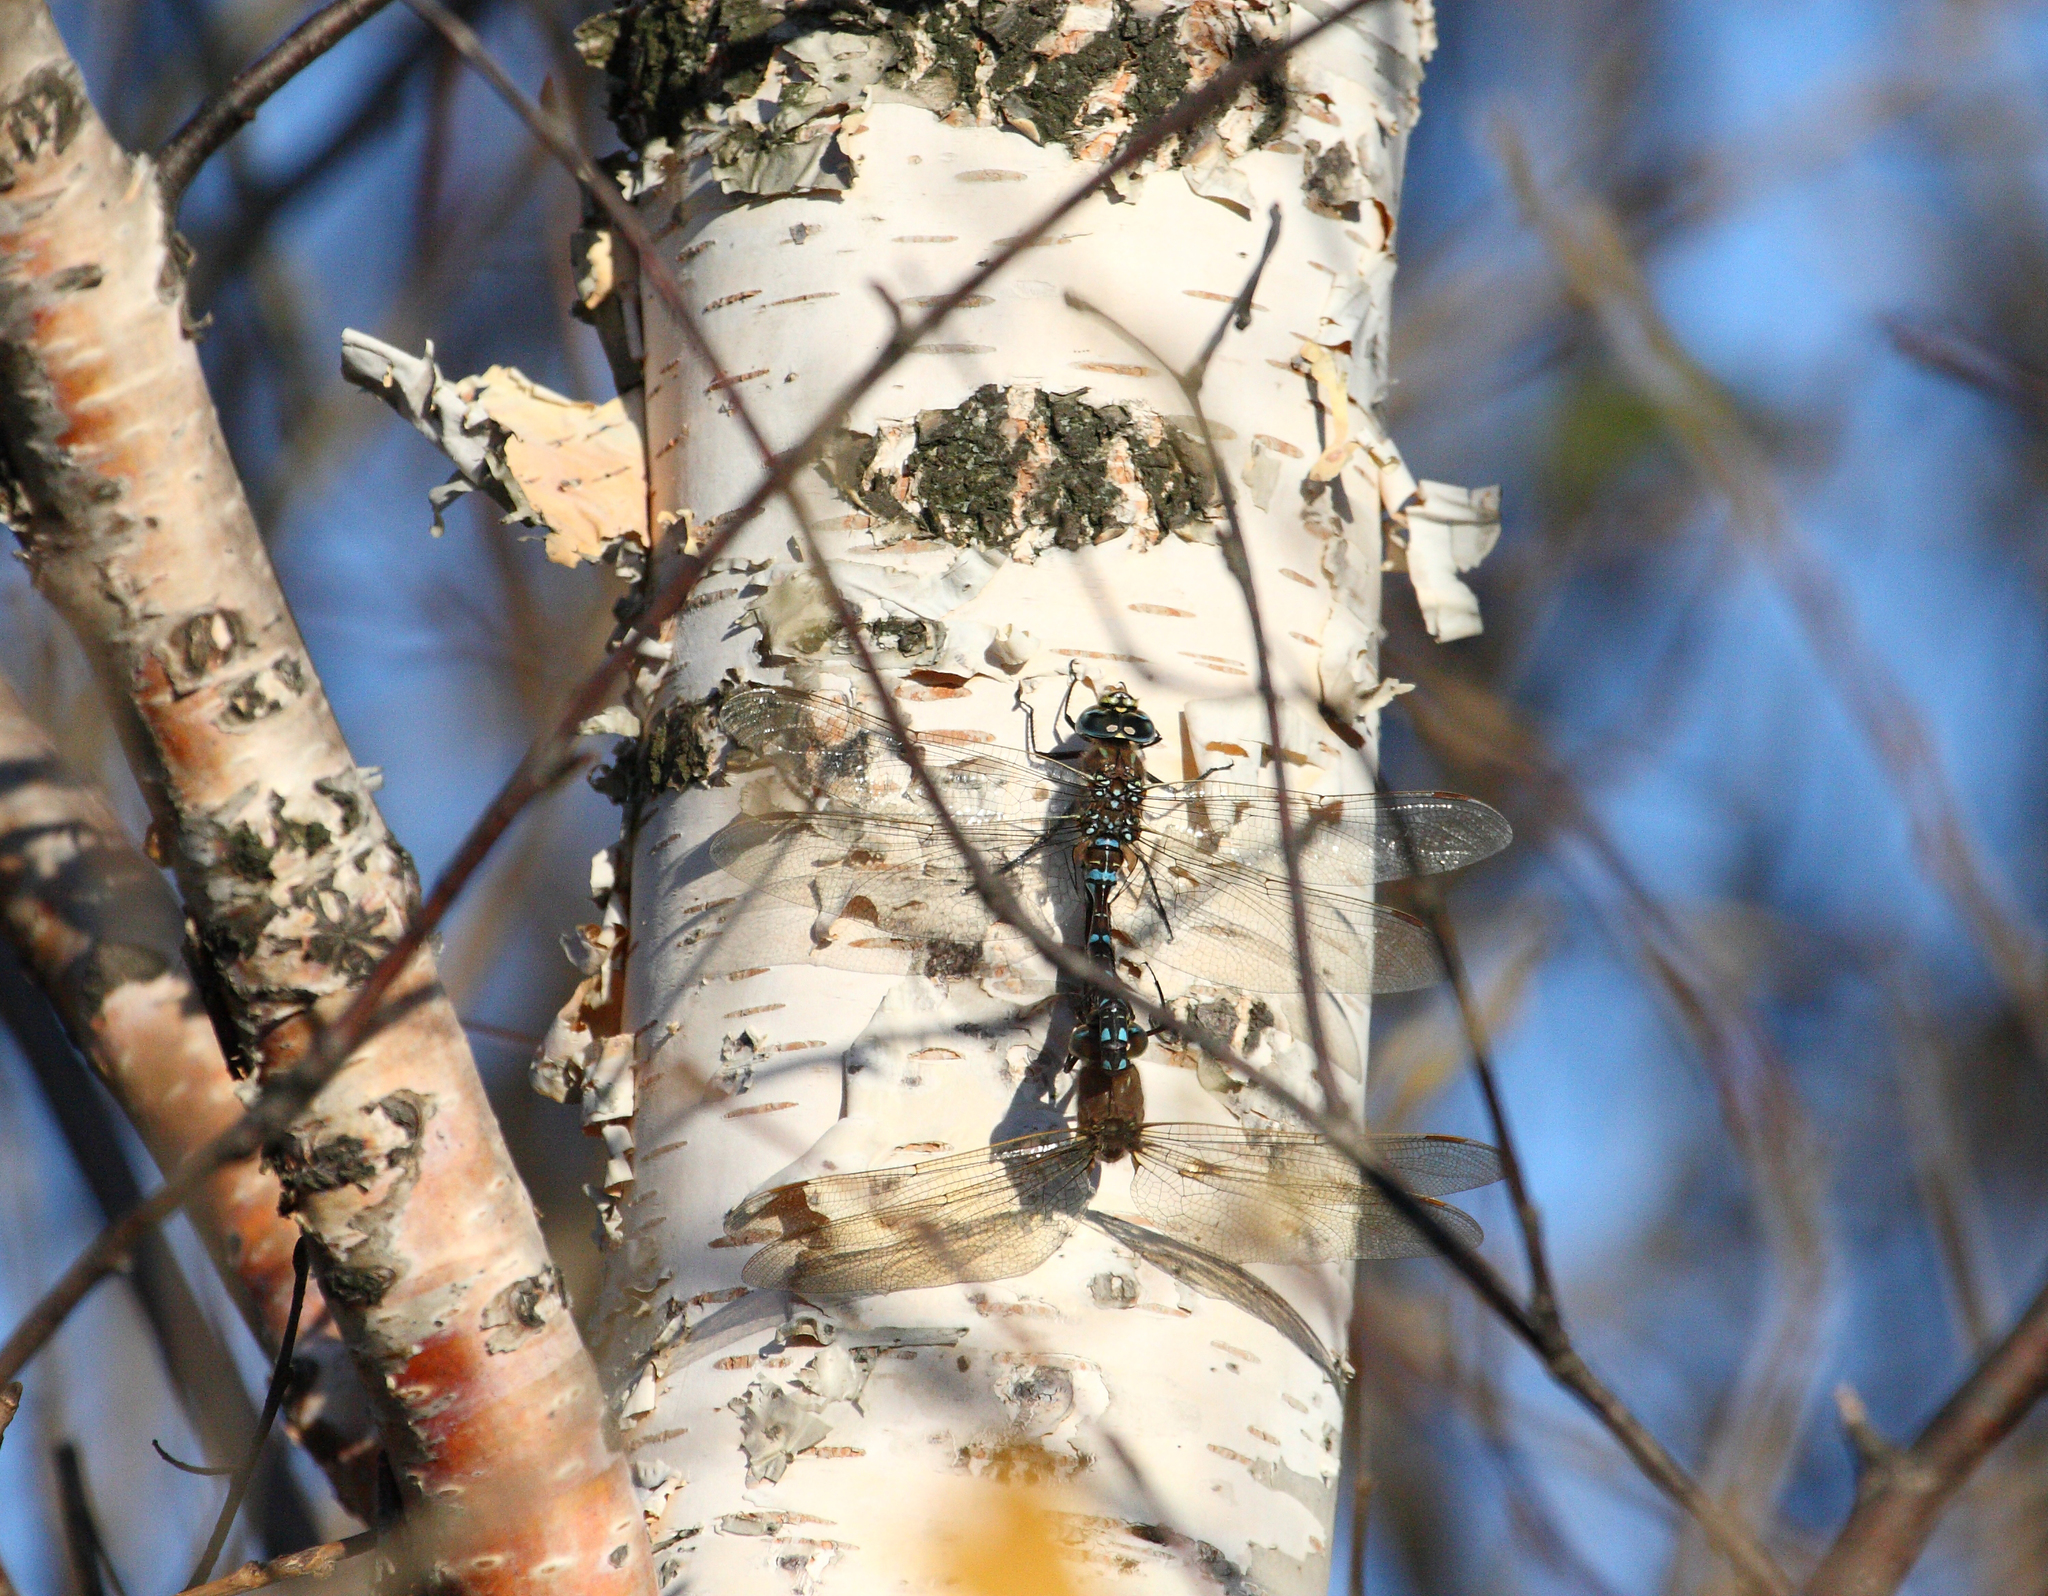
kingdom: Animalia
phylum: Arthropoda
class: Insecta
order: Odonata
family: Aeshnidae
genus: Aeshna
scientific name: Aeshna juncea
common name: Moorland hawker
